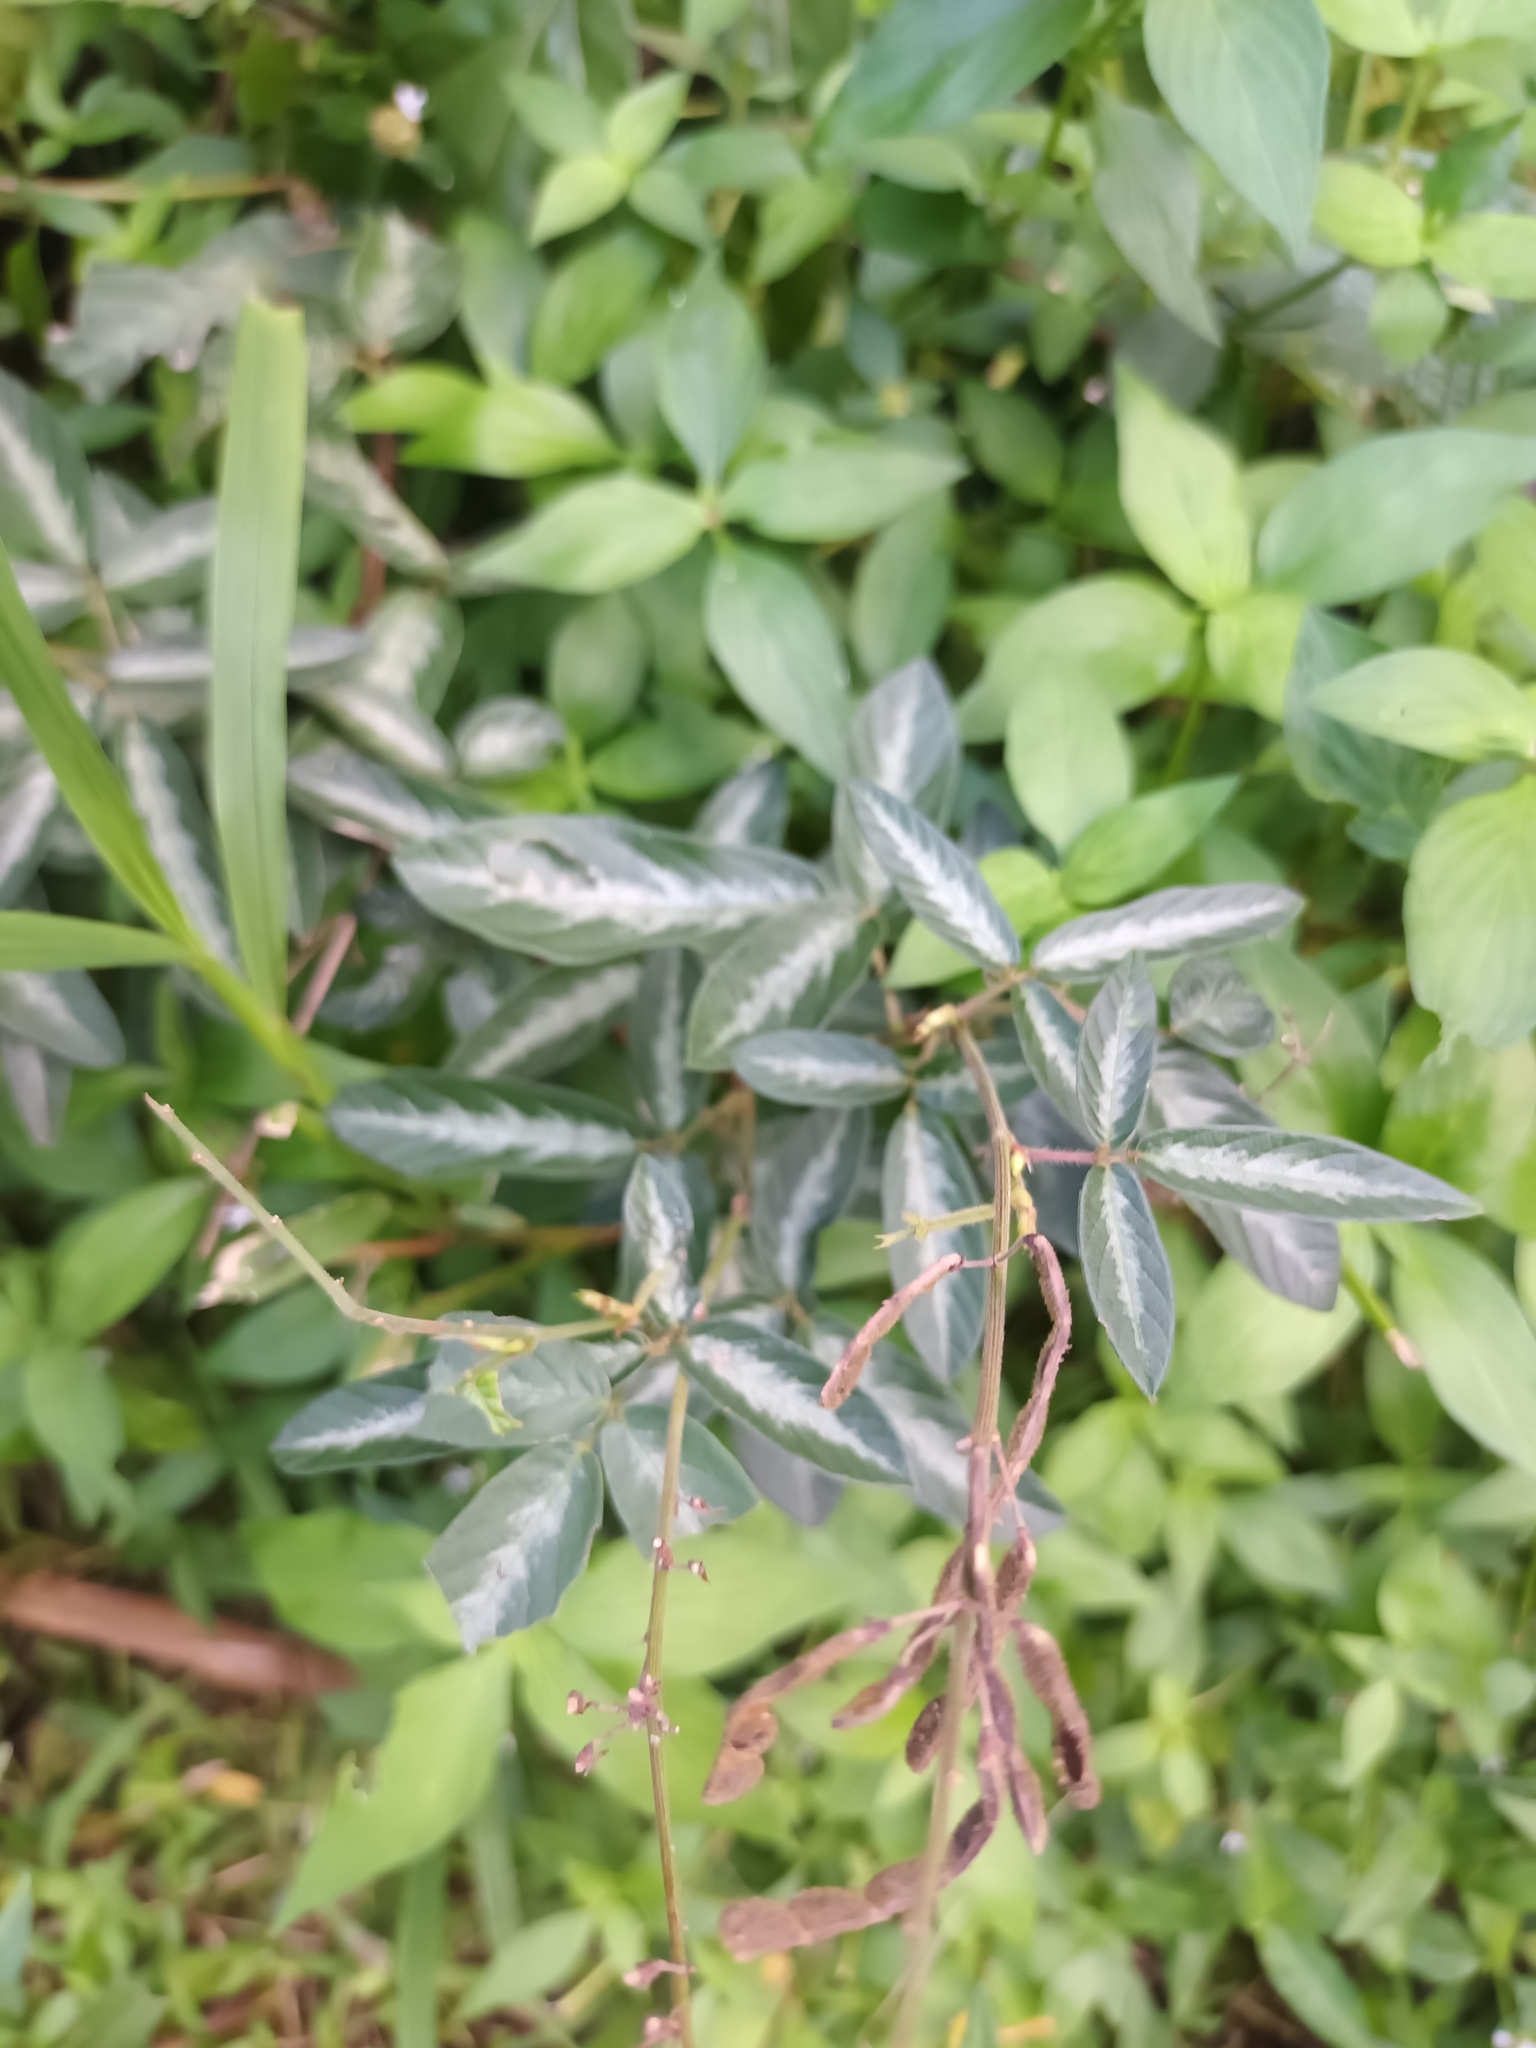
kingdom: Plantae
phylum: Tracheophyta
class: Magnoliopsida
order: Fabales
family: Fabaceae
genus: Desmodium
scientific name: Desmodium incanum
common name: Tickclover
